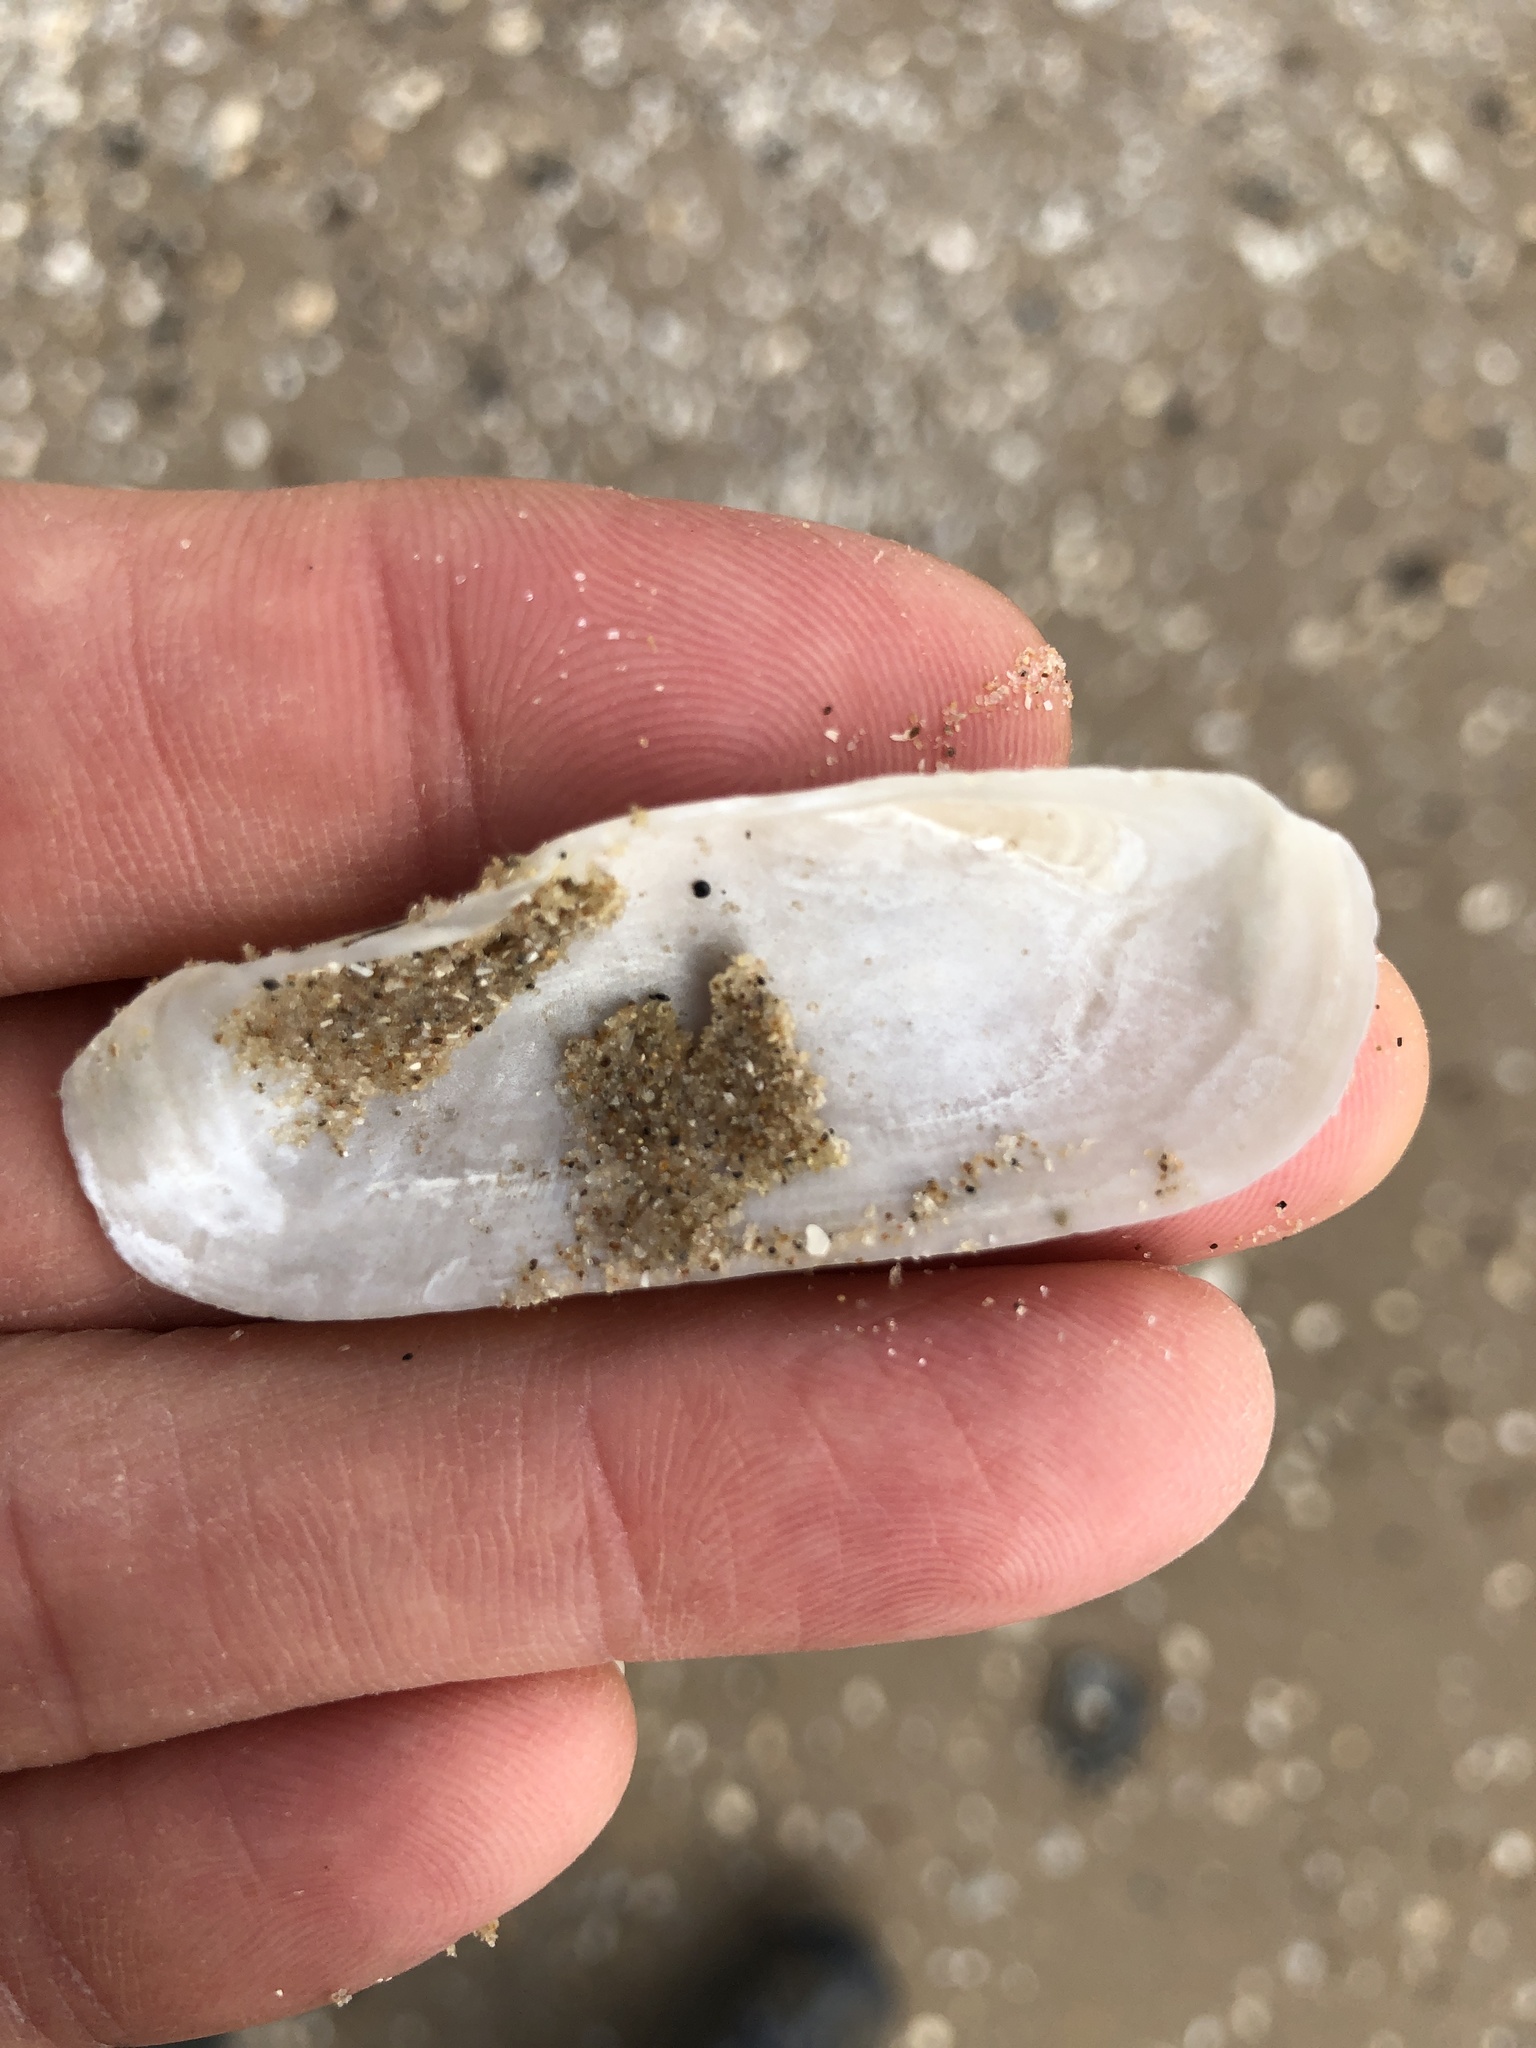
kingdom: Animalia
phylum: Mollusca
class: Bivalvia
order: Cardiida
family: Solecurtidae
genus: Tagelus
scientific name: Tagelus plebeius
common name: Stout tagelus
